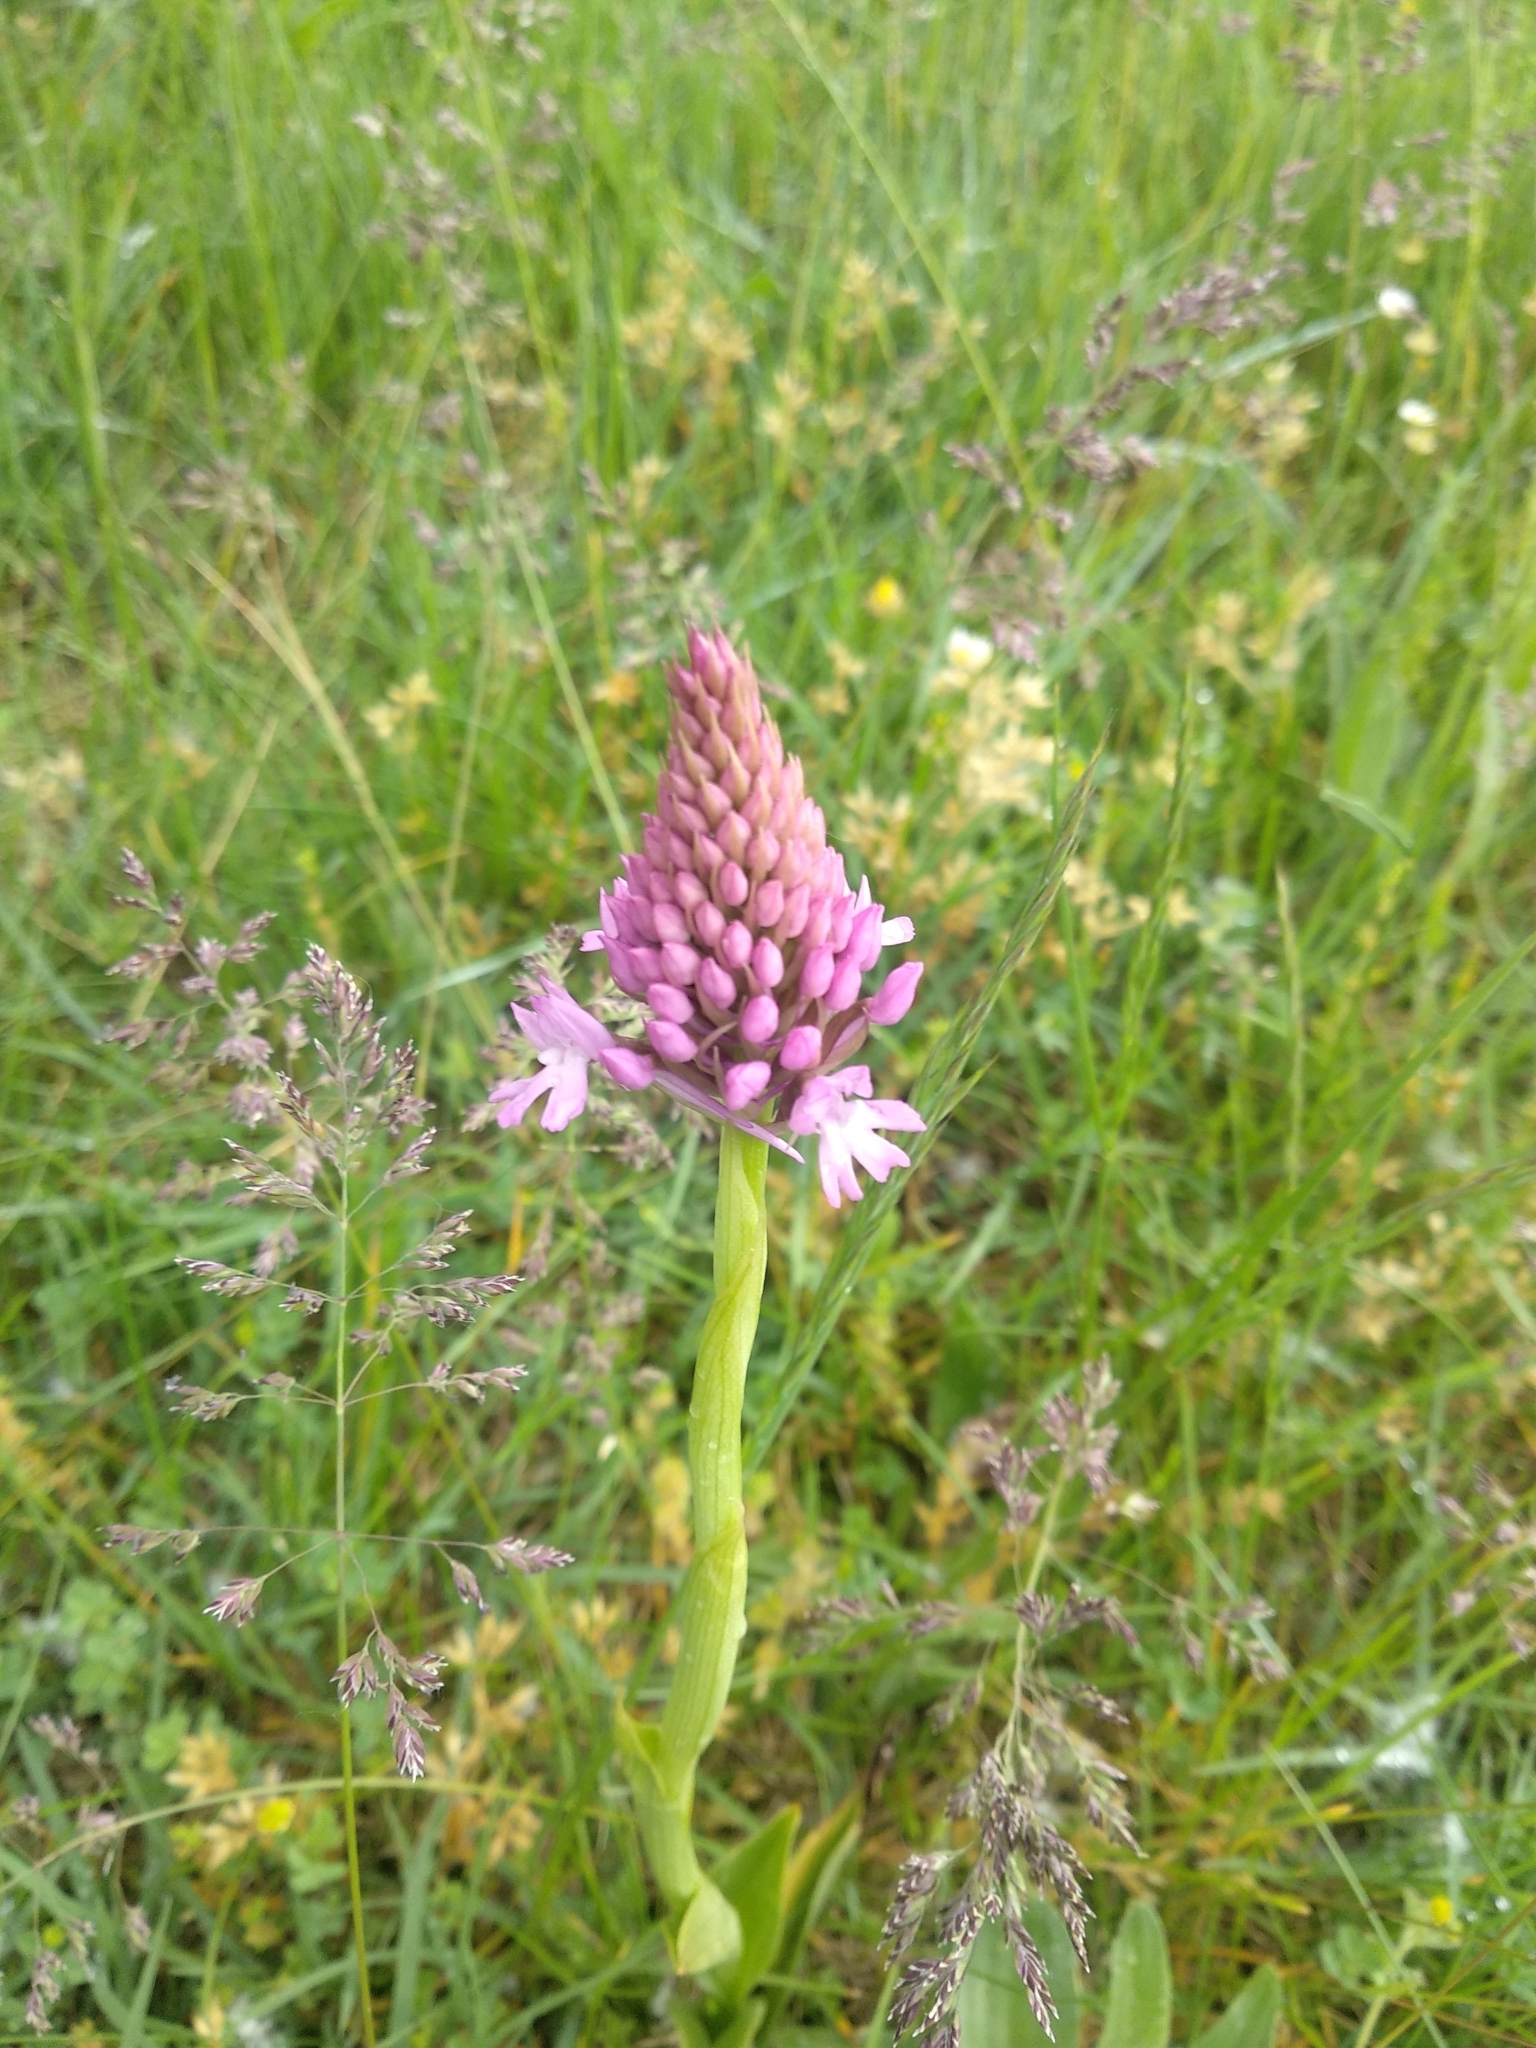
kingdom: Plantae
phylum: Tracheophyta
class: Liliopsida
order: Asparagales
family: Orchidaceae
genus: Anacamptis
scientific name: Anacamptis pyramidalis
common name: Pyramidal orchid
